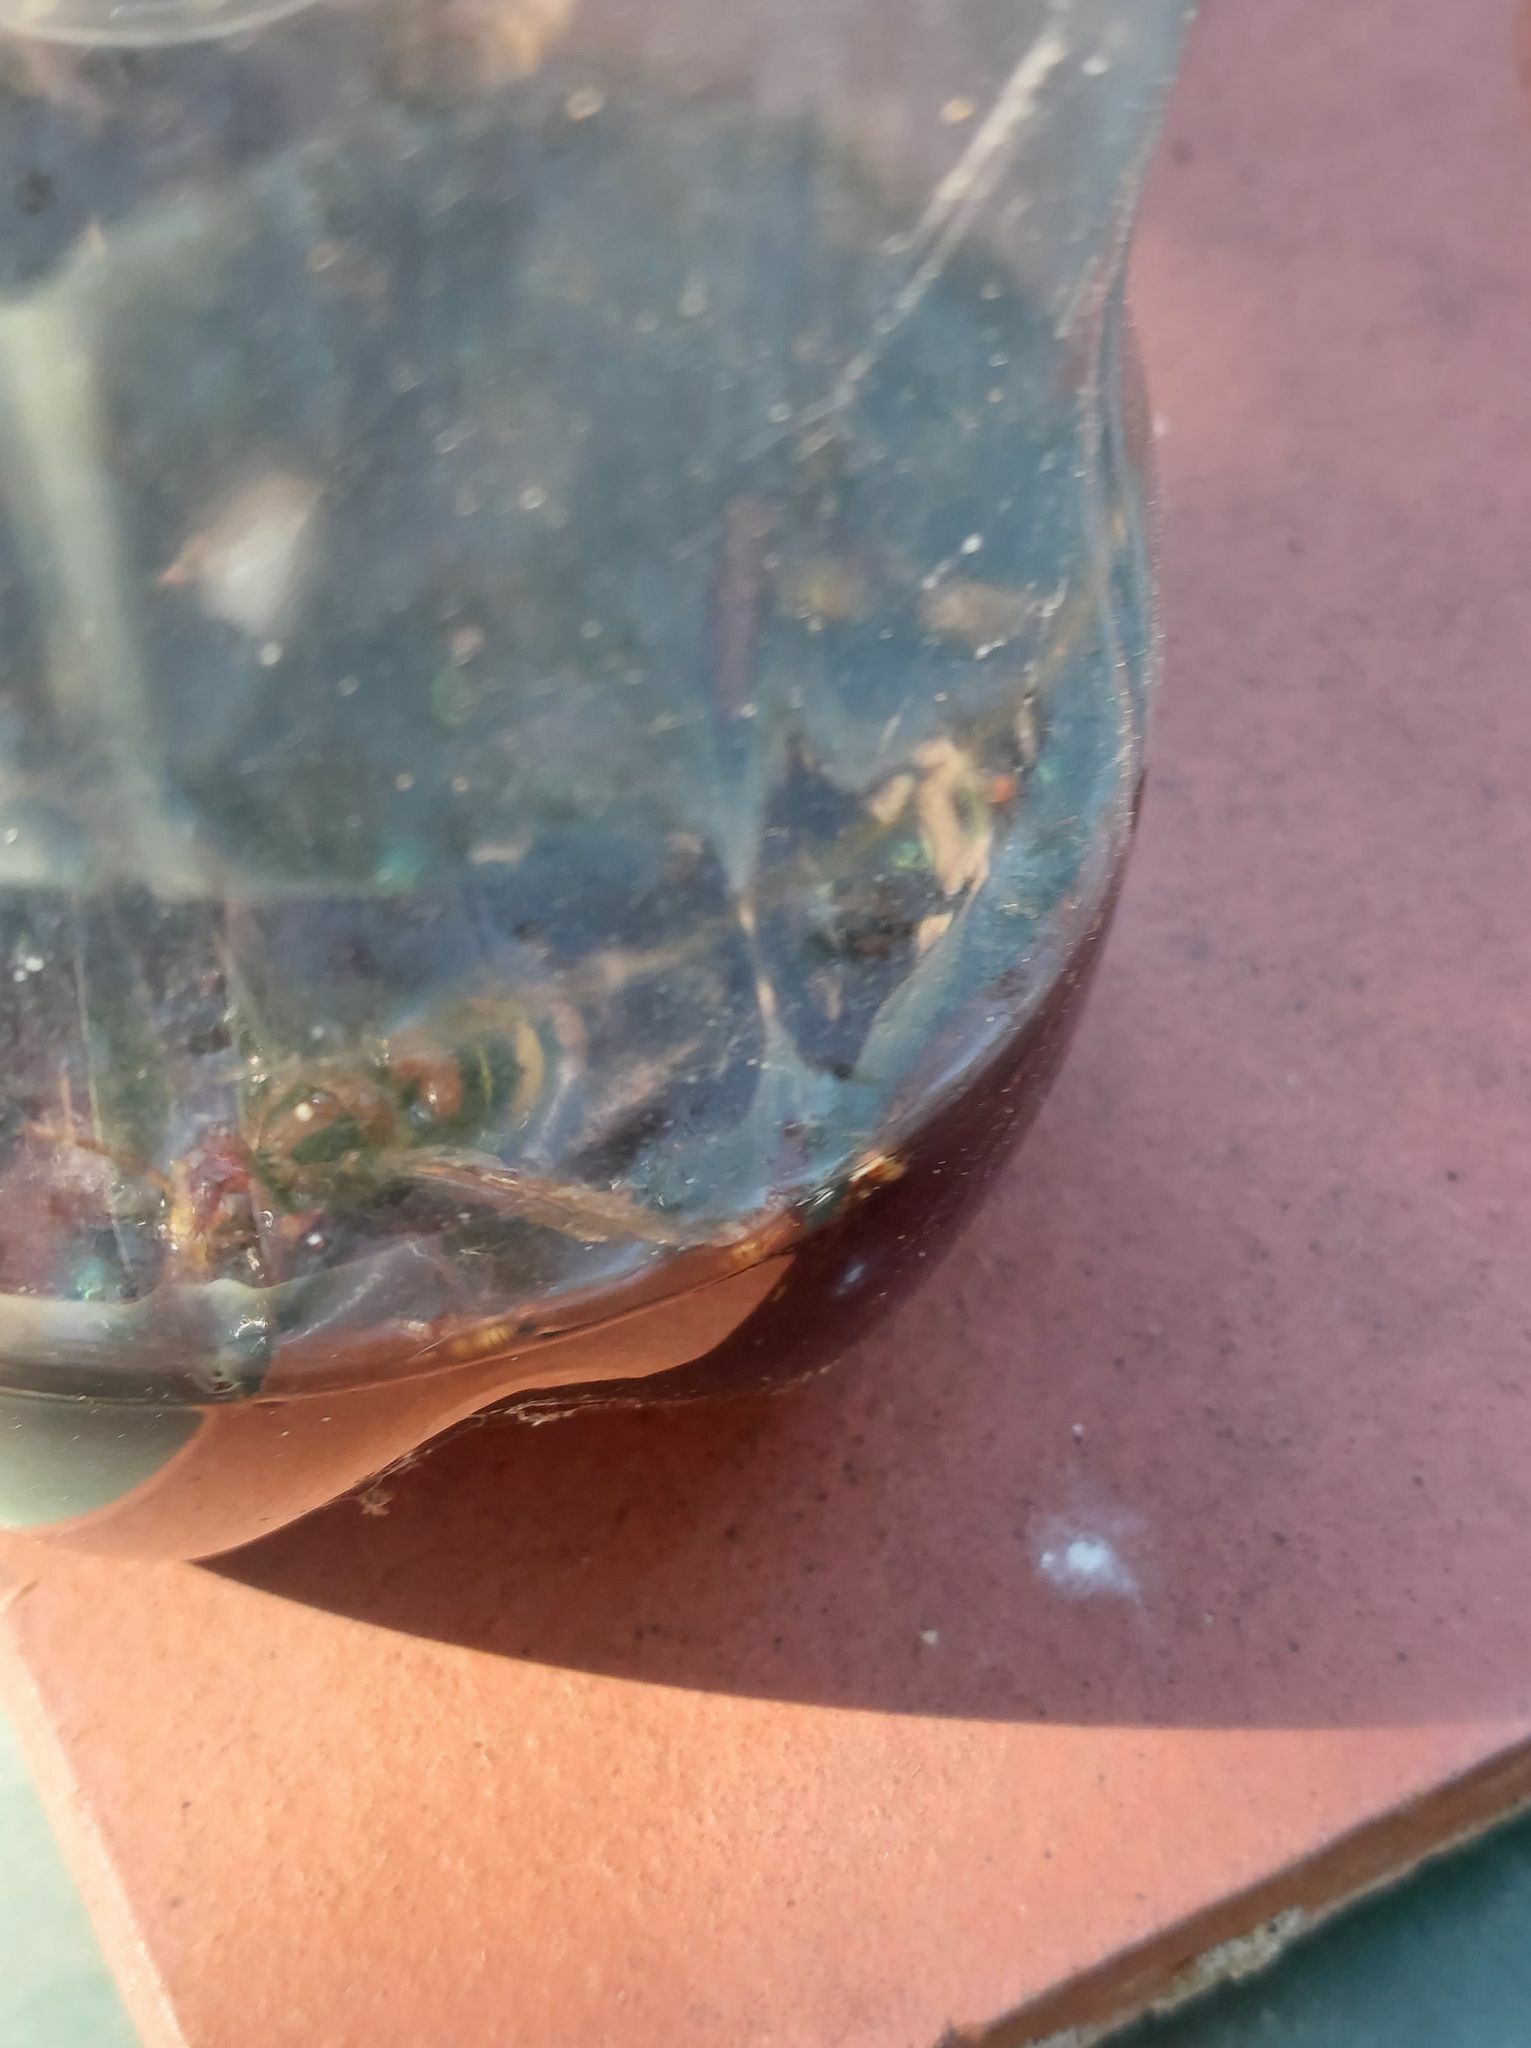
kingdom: Animalia
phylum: Arthropoda
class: Insecta
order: Hymenoptera
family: Vespidae
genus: Vespa
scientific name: Vespa crabro
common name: Hornet
